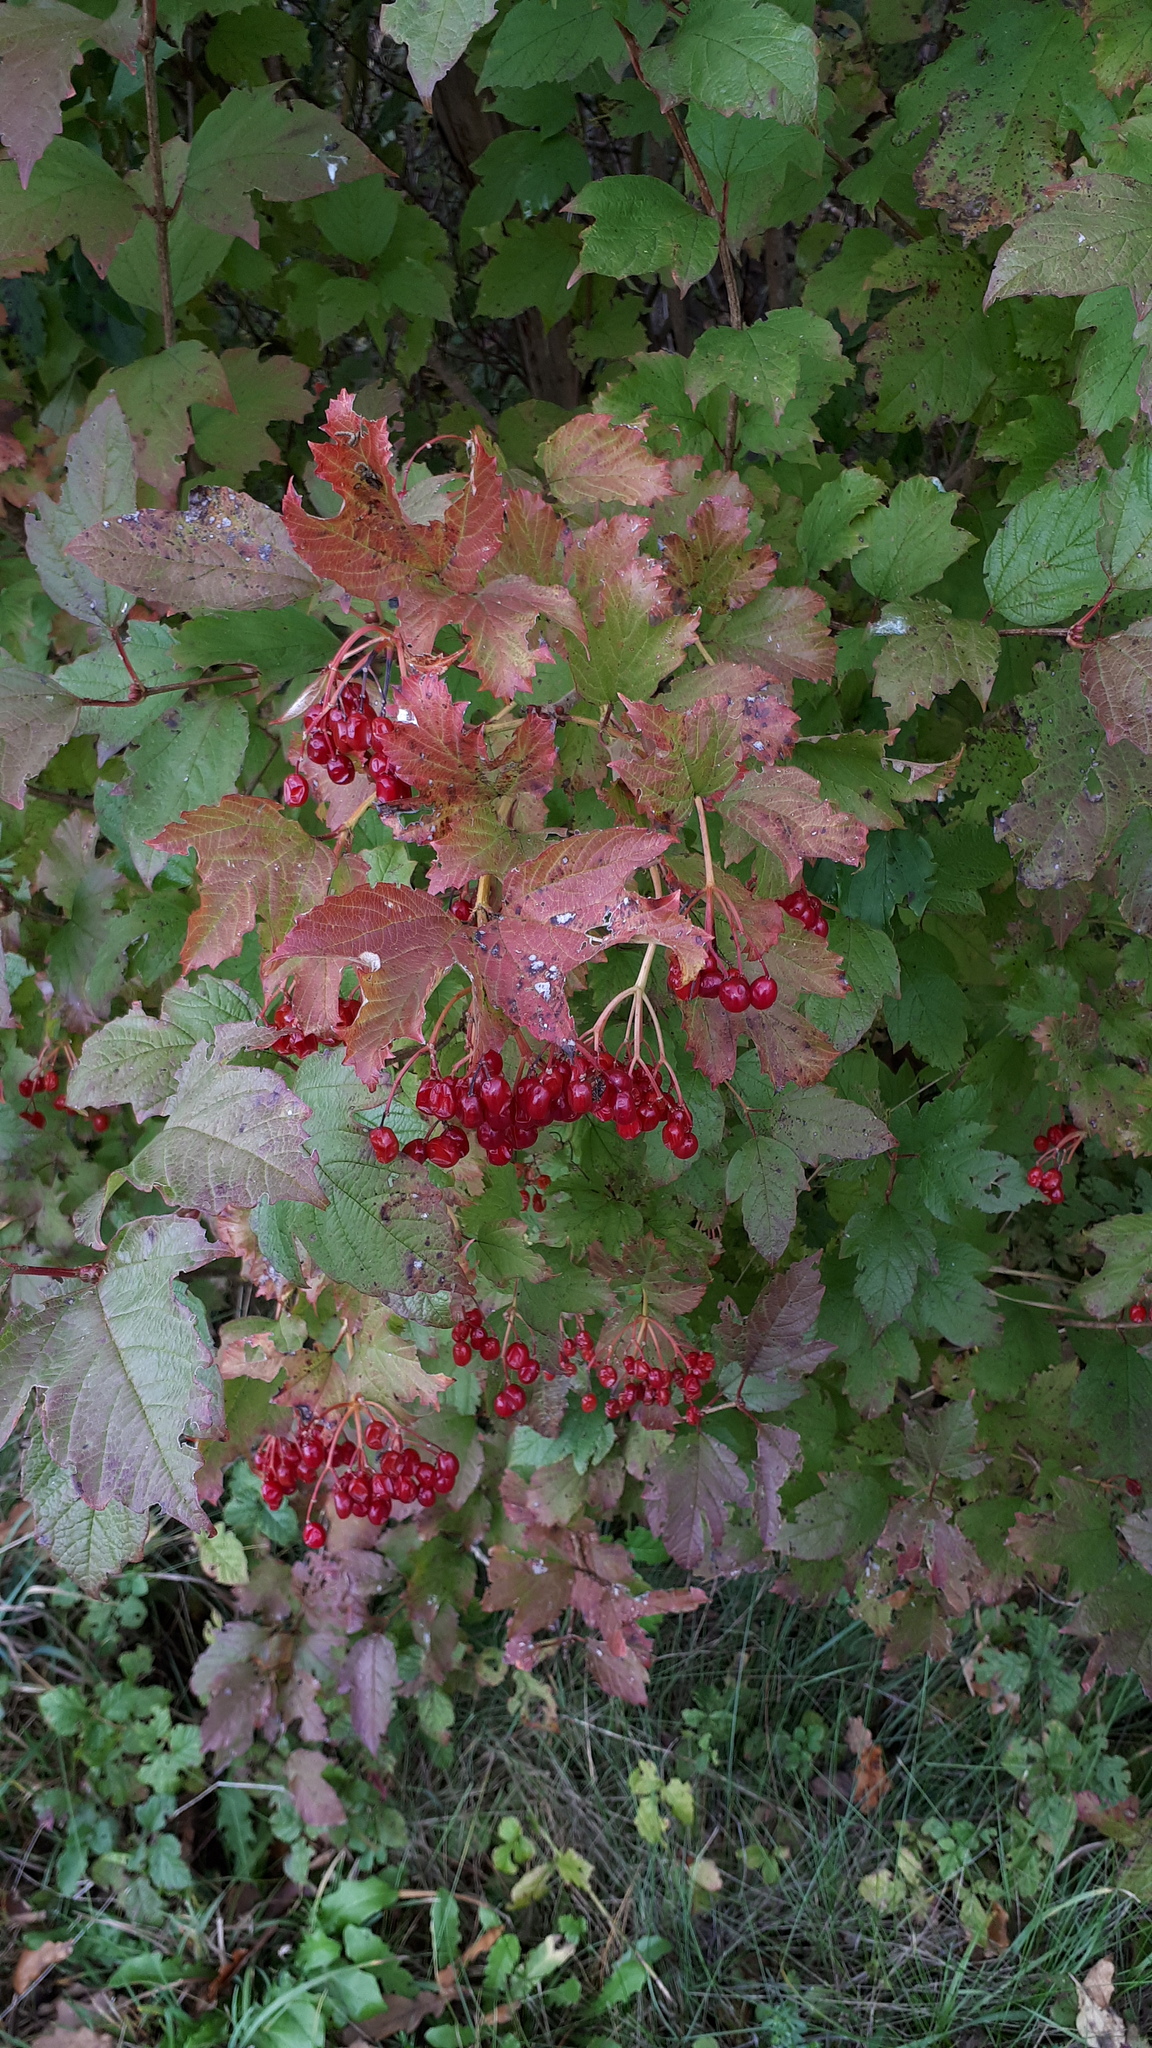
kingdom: Plantae
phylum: Tracheophyta
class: Magnoliopsida
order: Dipsacales
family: Viburnaceae
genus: Viburnum
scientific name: Viburnum opulus
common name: Guelder-rose
